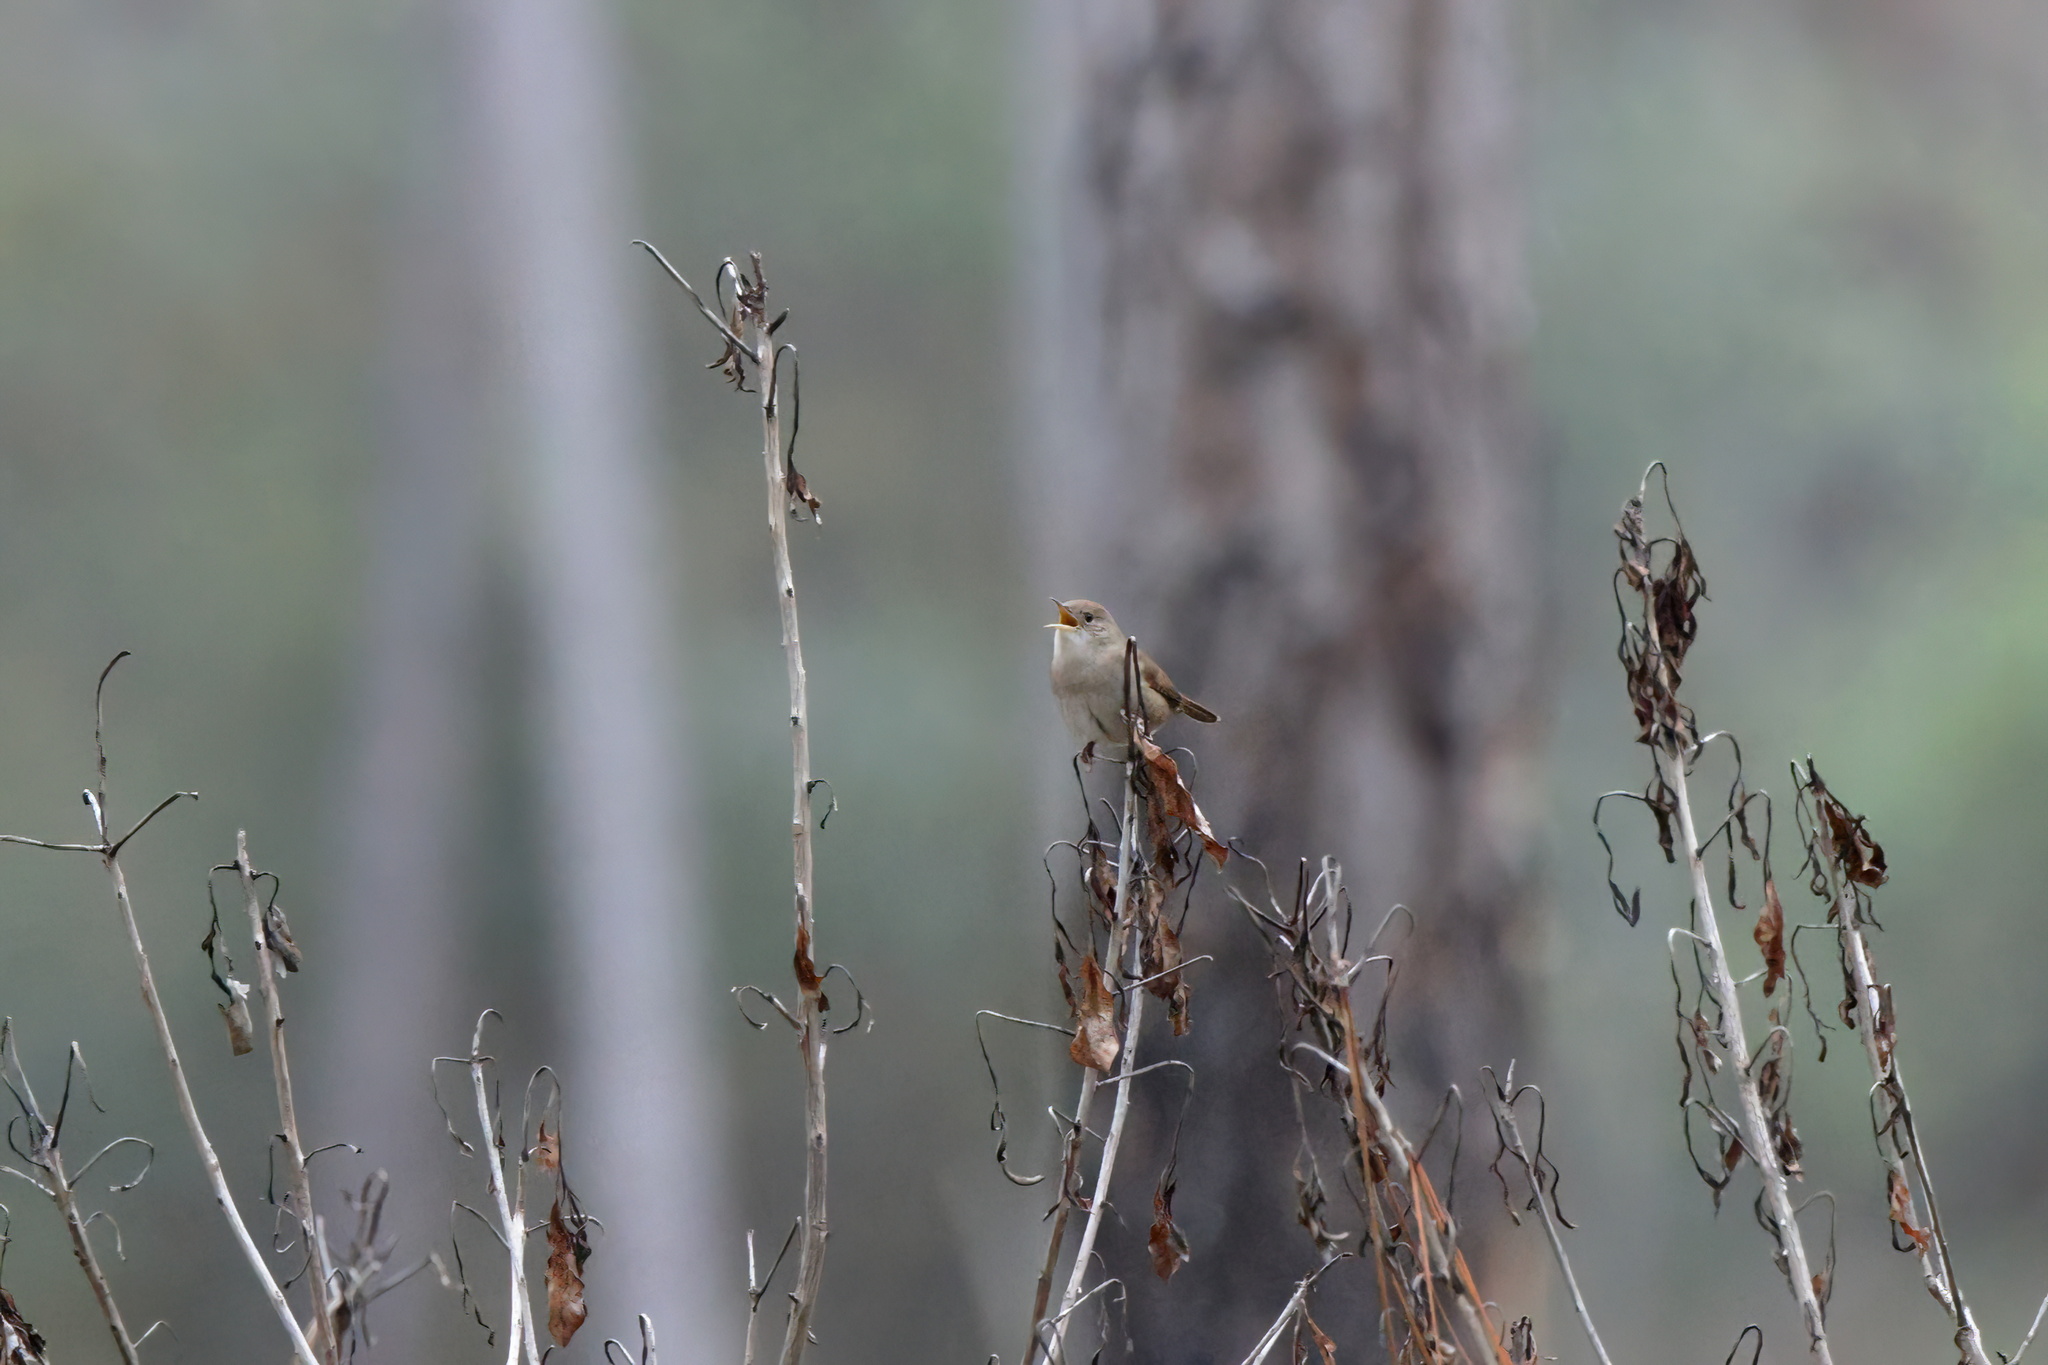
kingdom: Animalia
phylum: Chordata
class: Aves
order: Passeriformes
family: Troglodytidae
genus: Troglodytes
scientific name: Troglodytes aedon
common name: House wren
